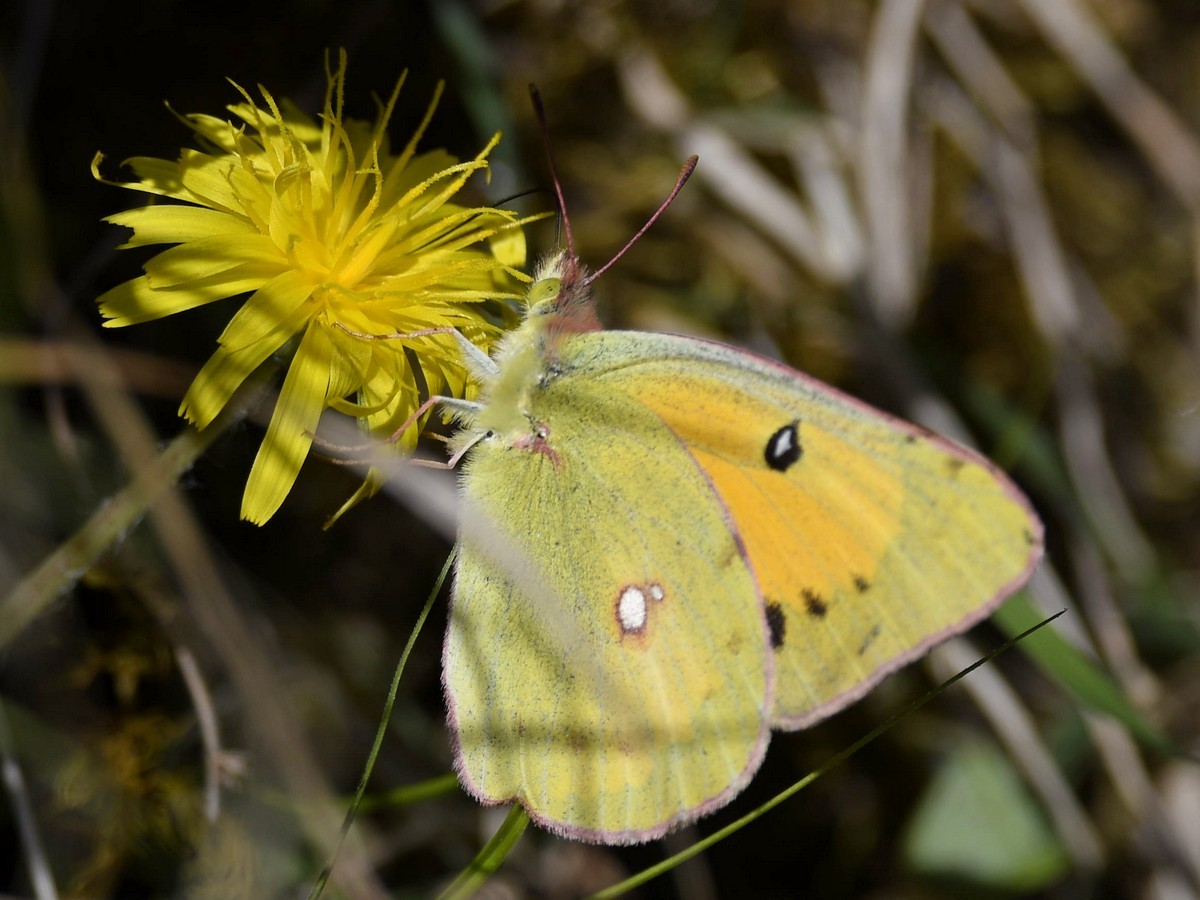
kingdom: Animalia
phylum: Arthropoda
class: Insecta
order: Lepidoptera
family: Pieridae
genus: Colias
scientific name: Colias fieldii
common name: Dark clouded yellow
